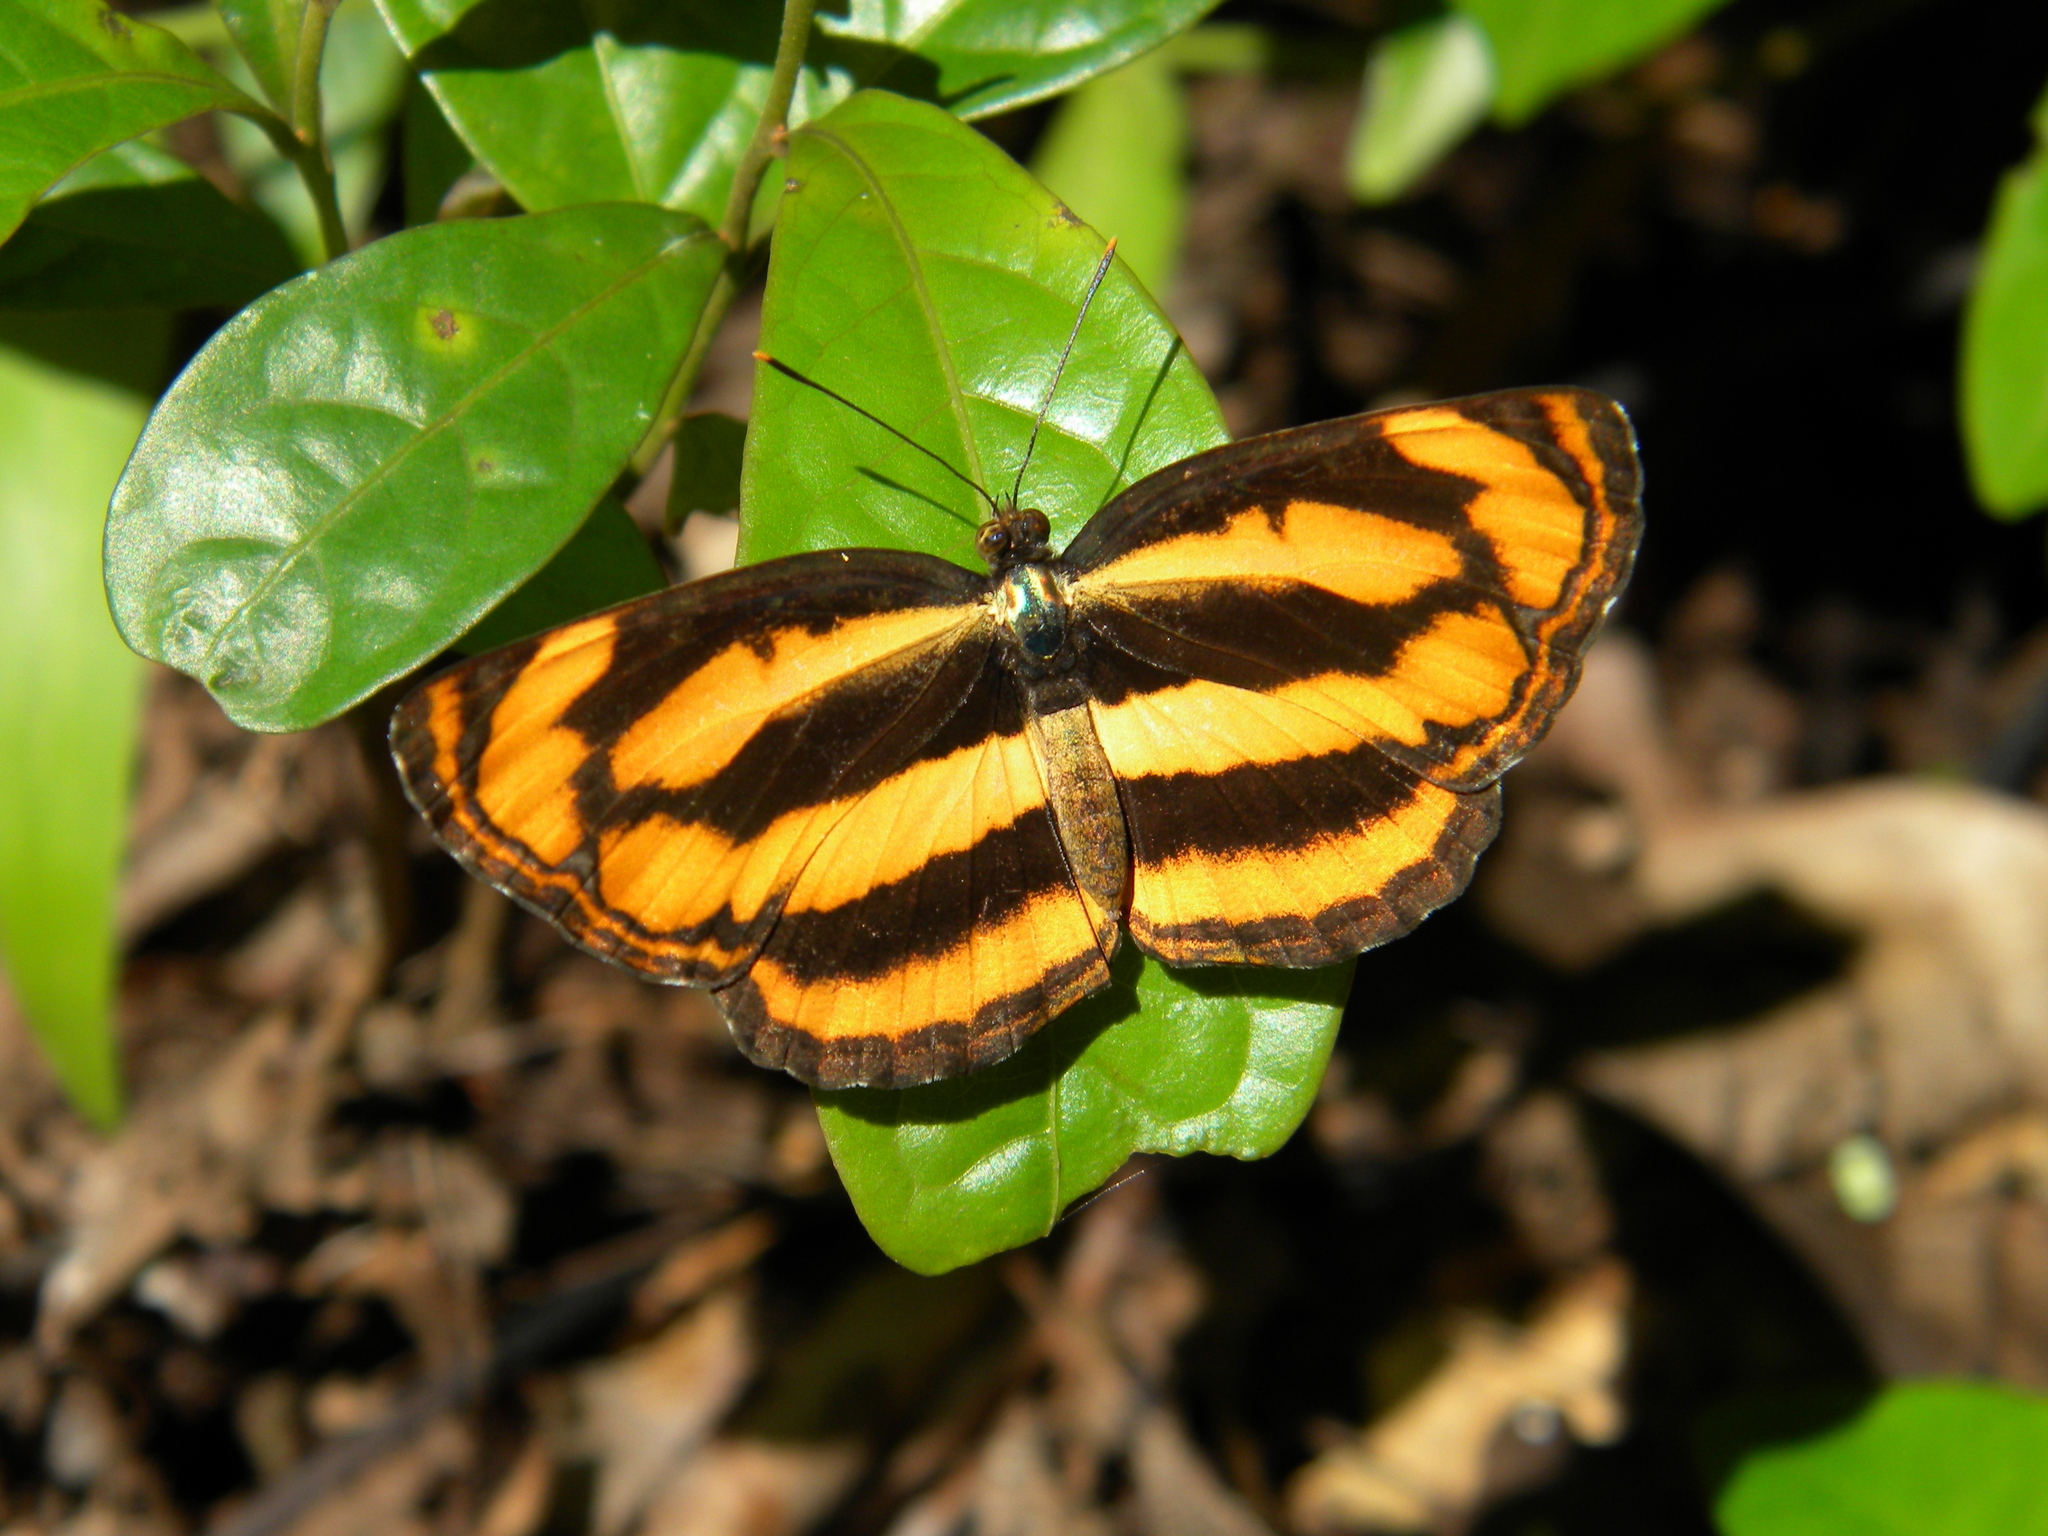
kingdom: Animalia
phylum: Arthropoda
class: Insecta
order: Lepidoptera
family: Nymphalidae
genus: Pantoporia
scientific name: Pantoporia hordonia
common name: Common lascar
